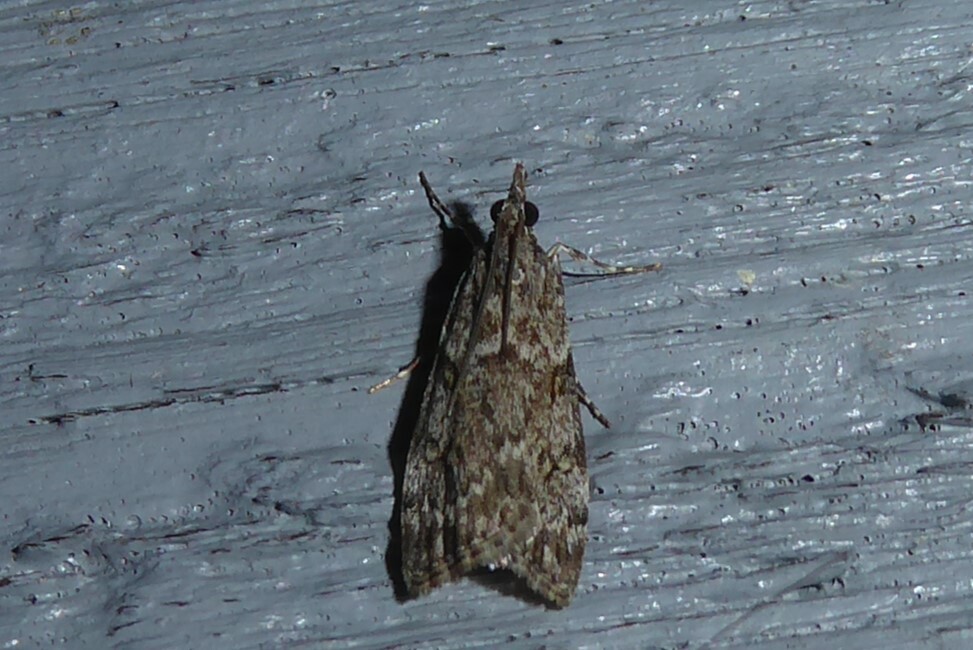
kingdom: Animalia
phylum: Arthropoda
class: Insecta
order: Lepidoptera
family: Crambidae
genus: Eudonia
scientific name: Eudonia cymatias
